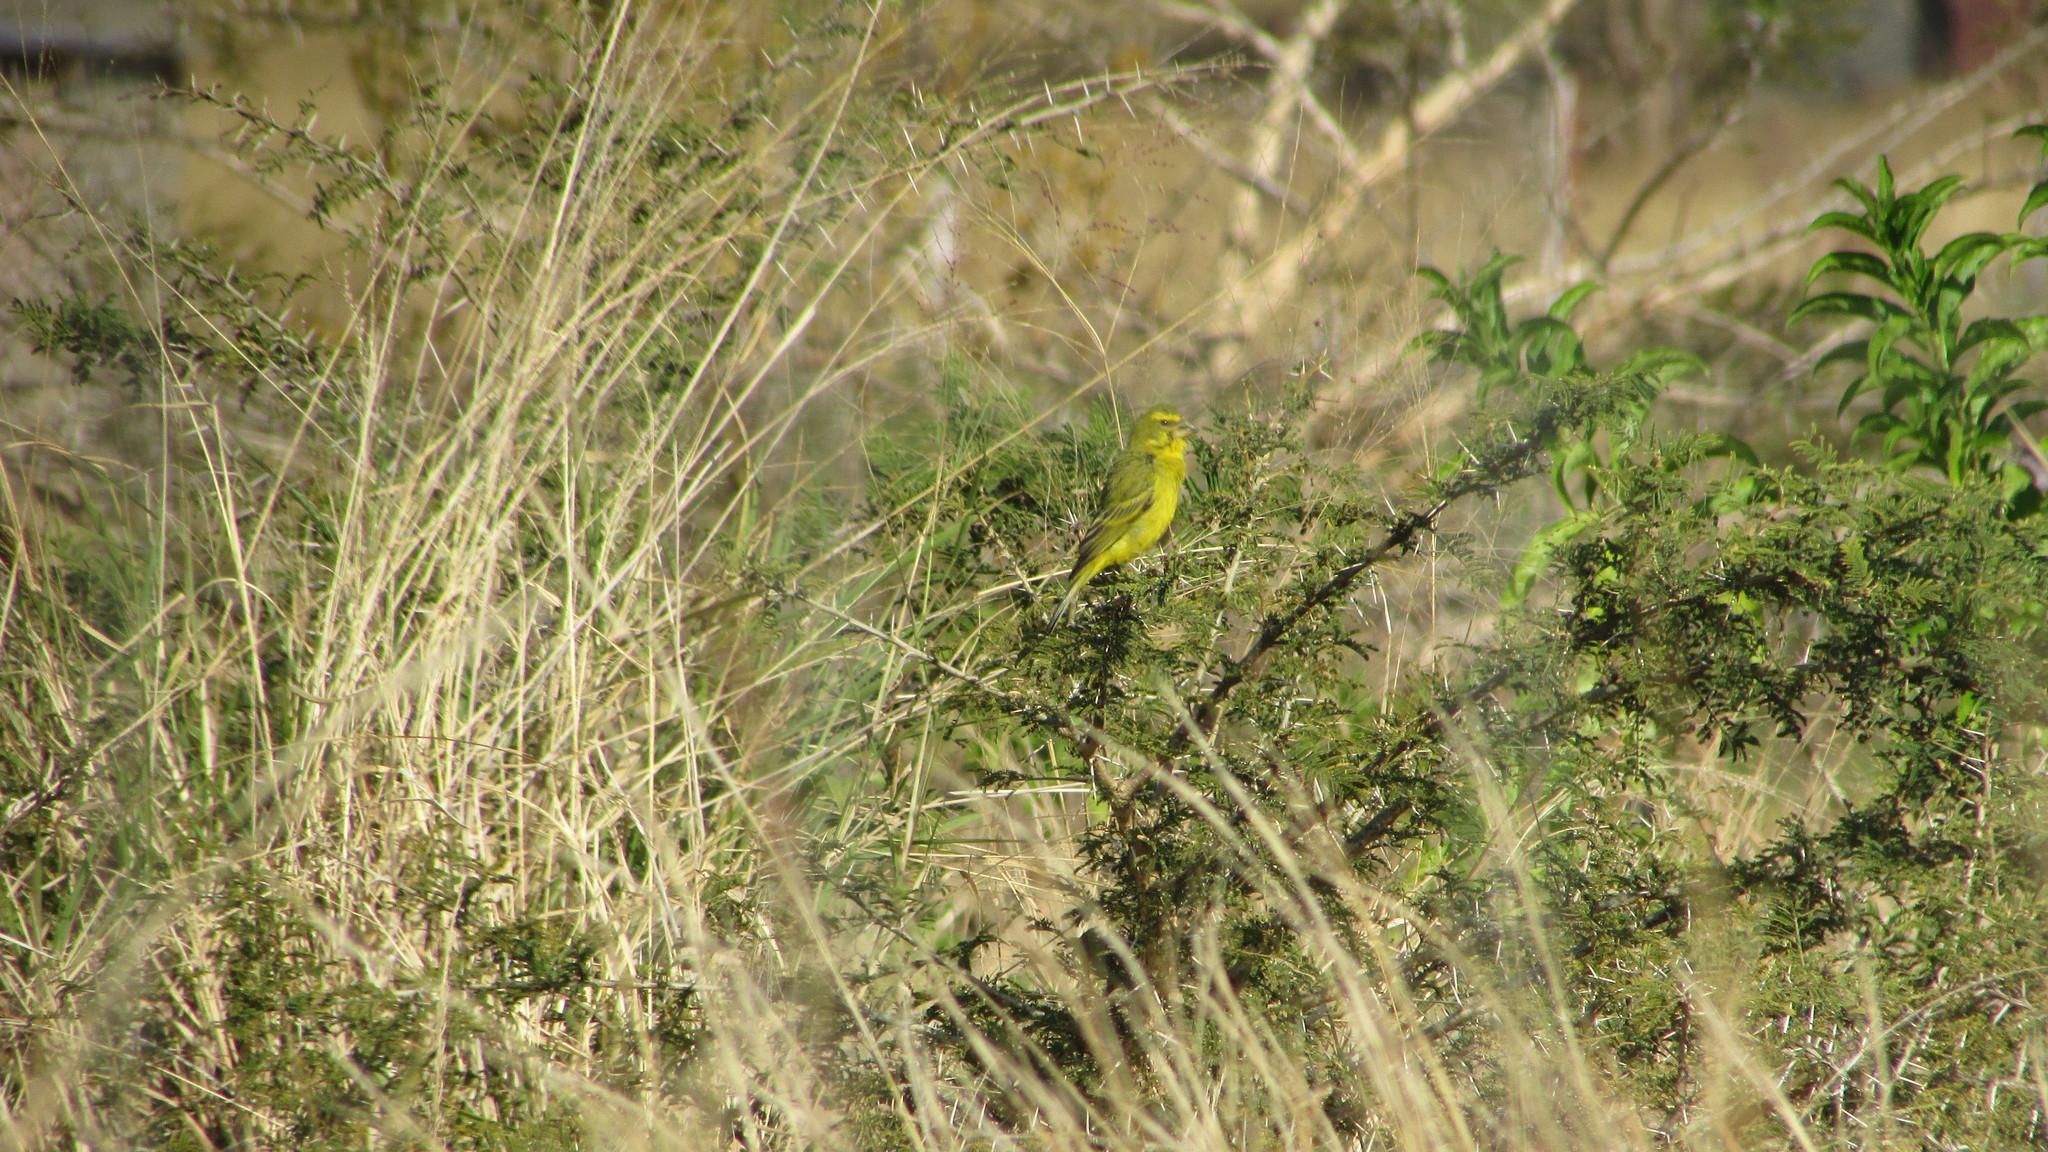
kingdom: Animalia
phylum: Chordata
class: Aves
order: Passeriformes
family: Fringillidae
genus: Crithagra
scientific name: Crithagra sulphurata
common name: Brimstone canary
